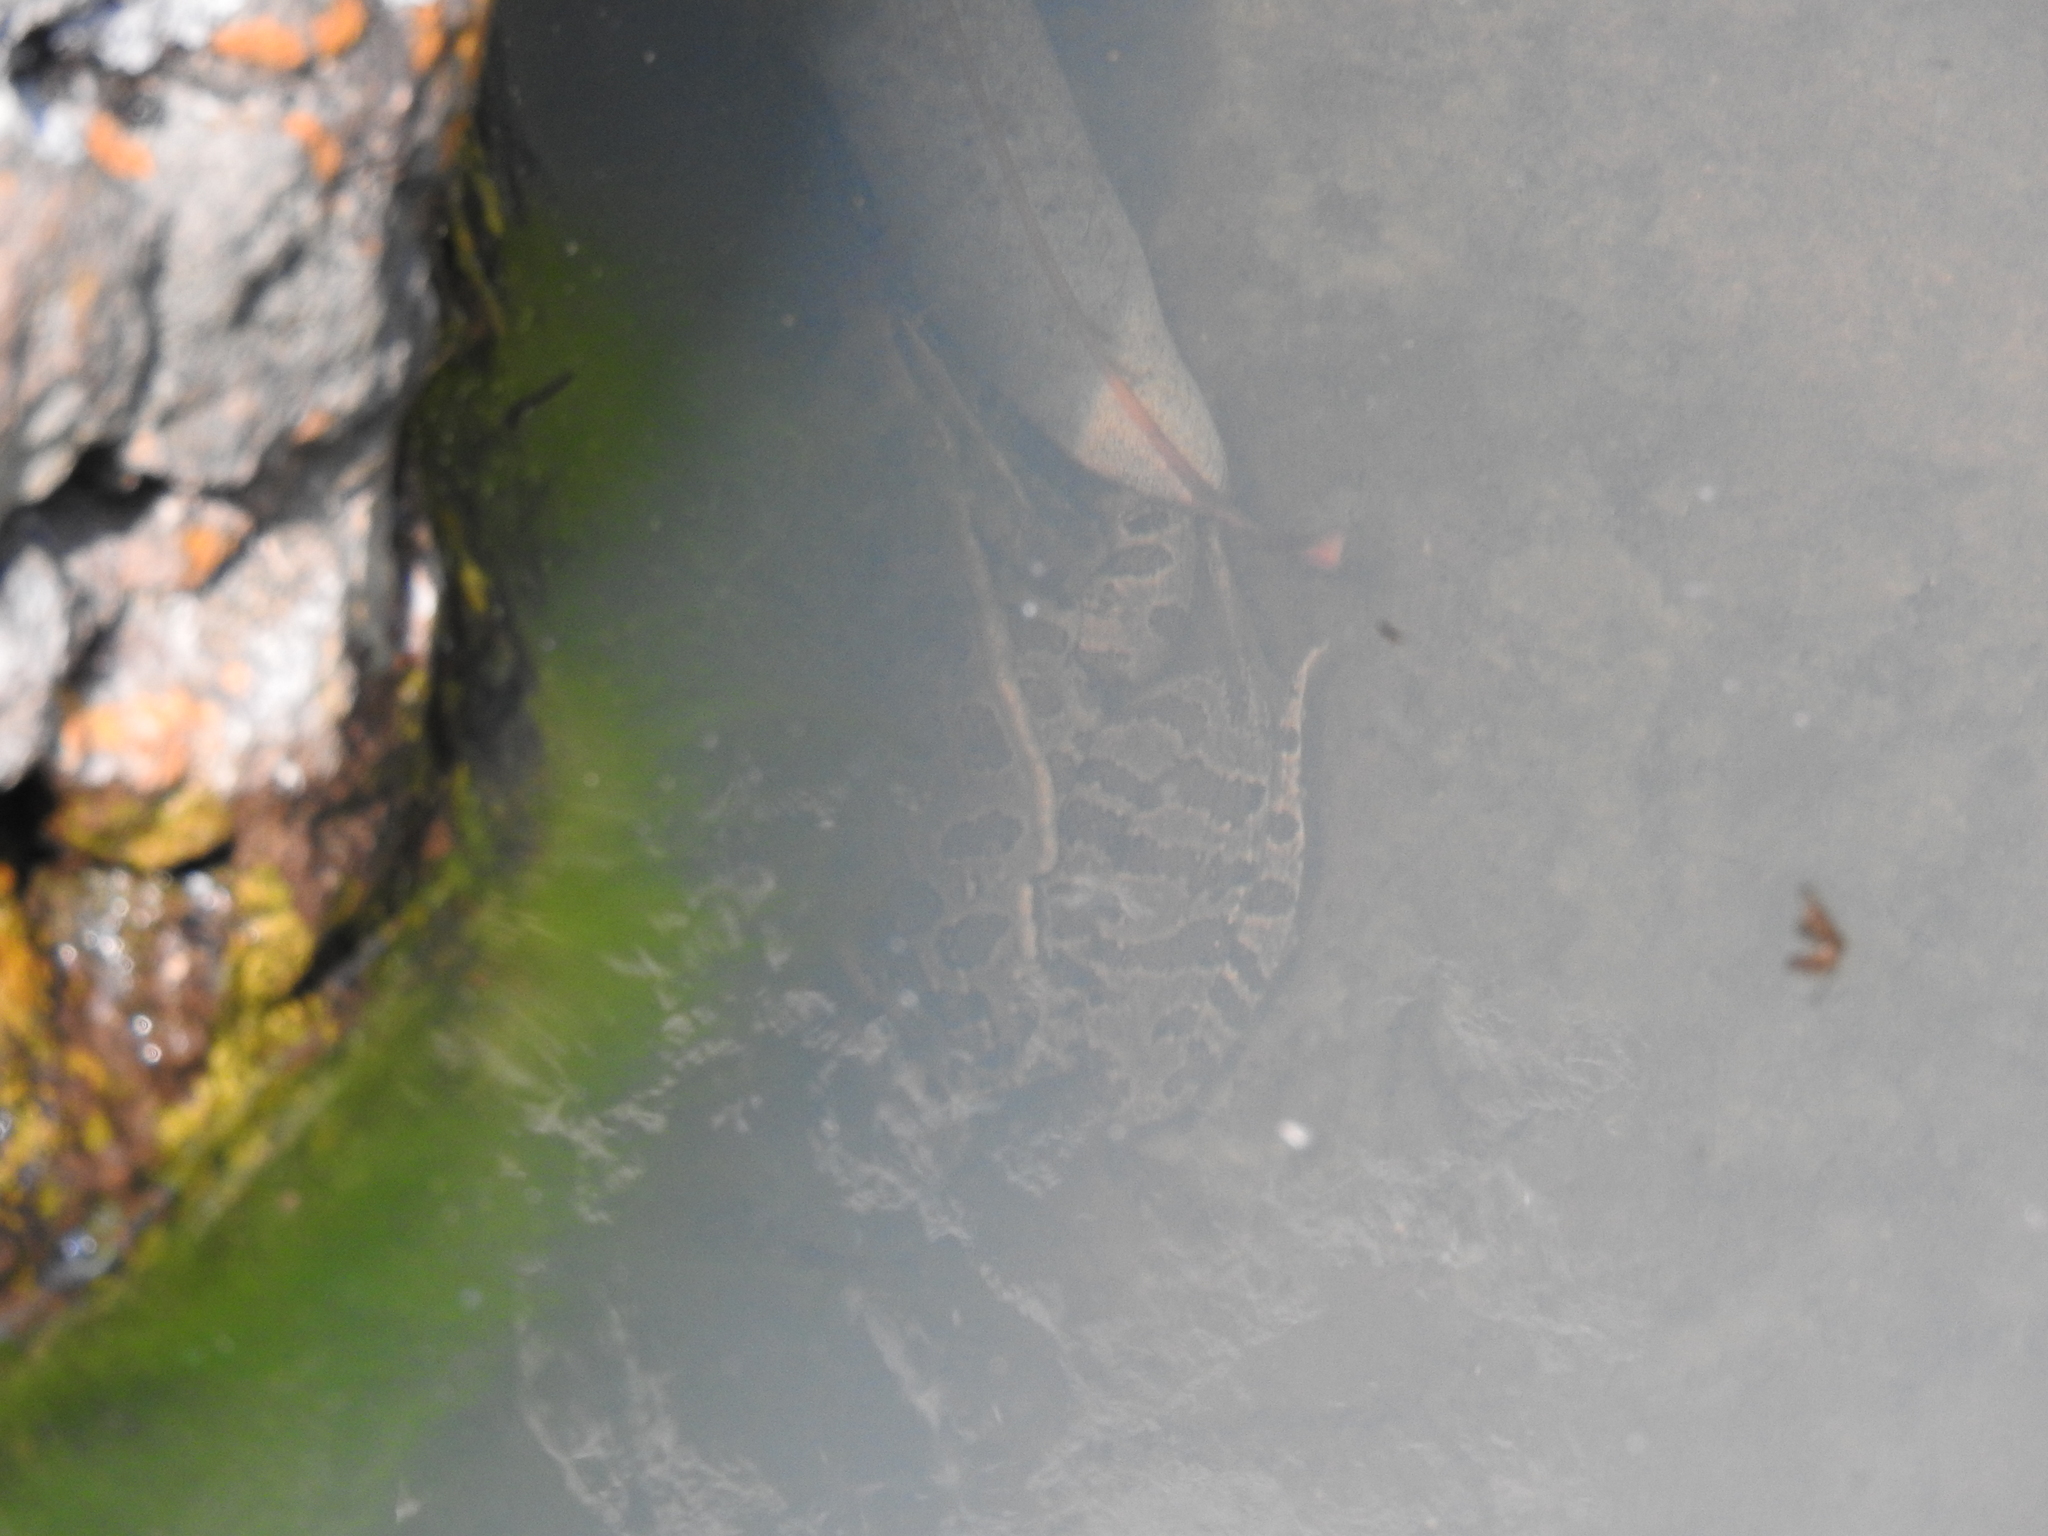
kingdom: Animalia
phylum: Chordata
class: Amphibia
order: Anura
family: Ranidae
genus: Lithobates
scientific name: Lithobates neovolcanicus
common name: Transverse volcanic leopard frog
